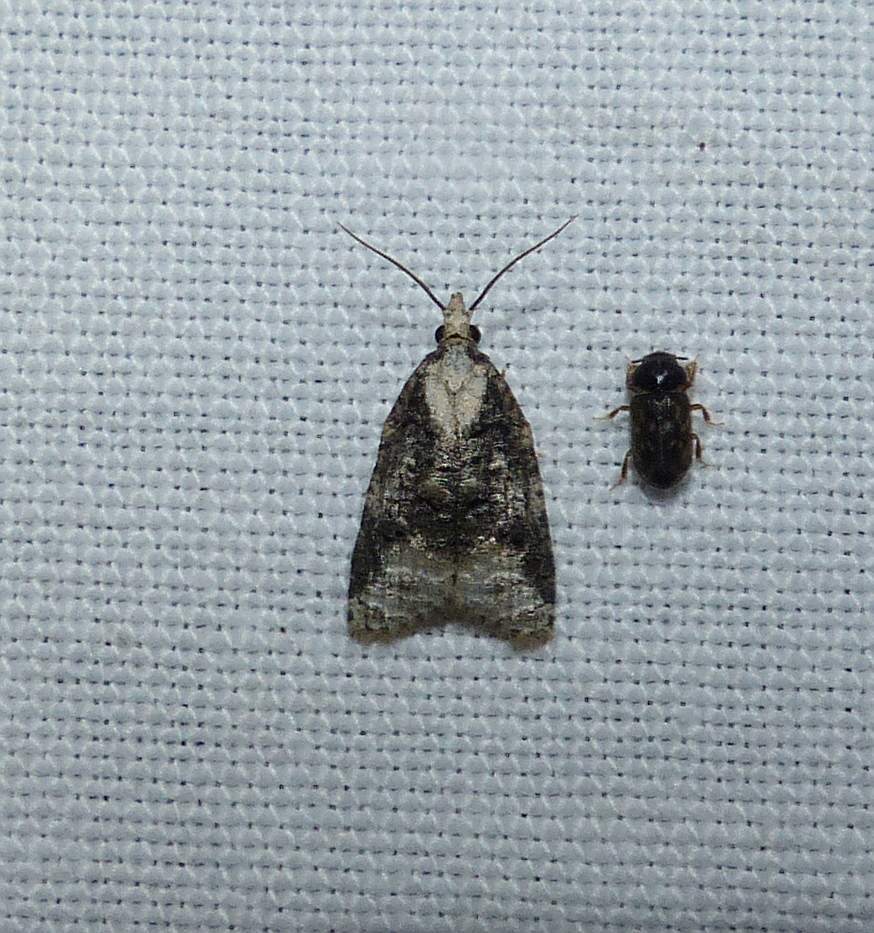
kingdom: Animalia
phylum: Arthropoda
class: Insecta
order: Lepidoptera
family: Tortricidae
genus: Platynota
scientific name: Platynota exasperatana
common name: Exasperating platynota moth
